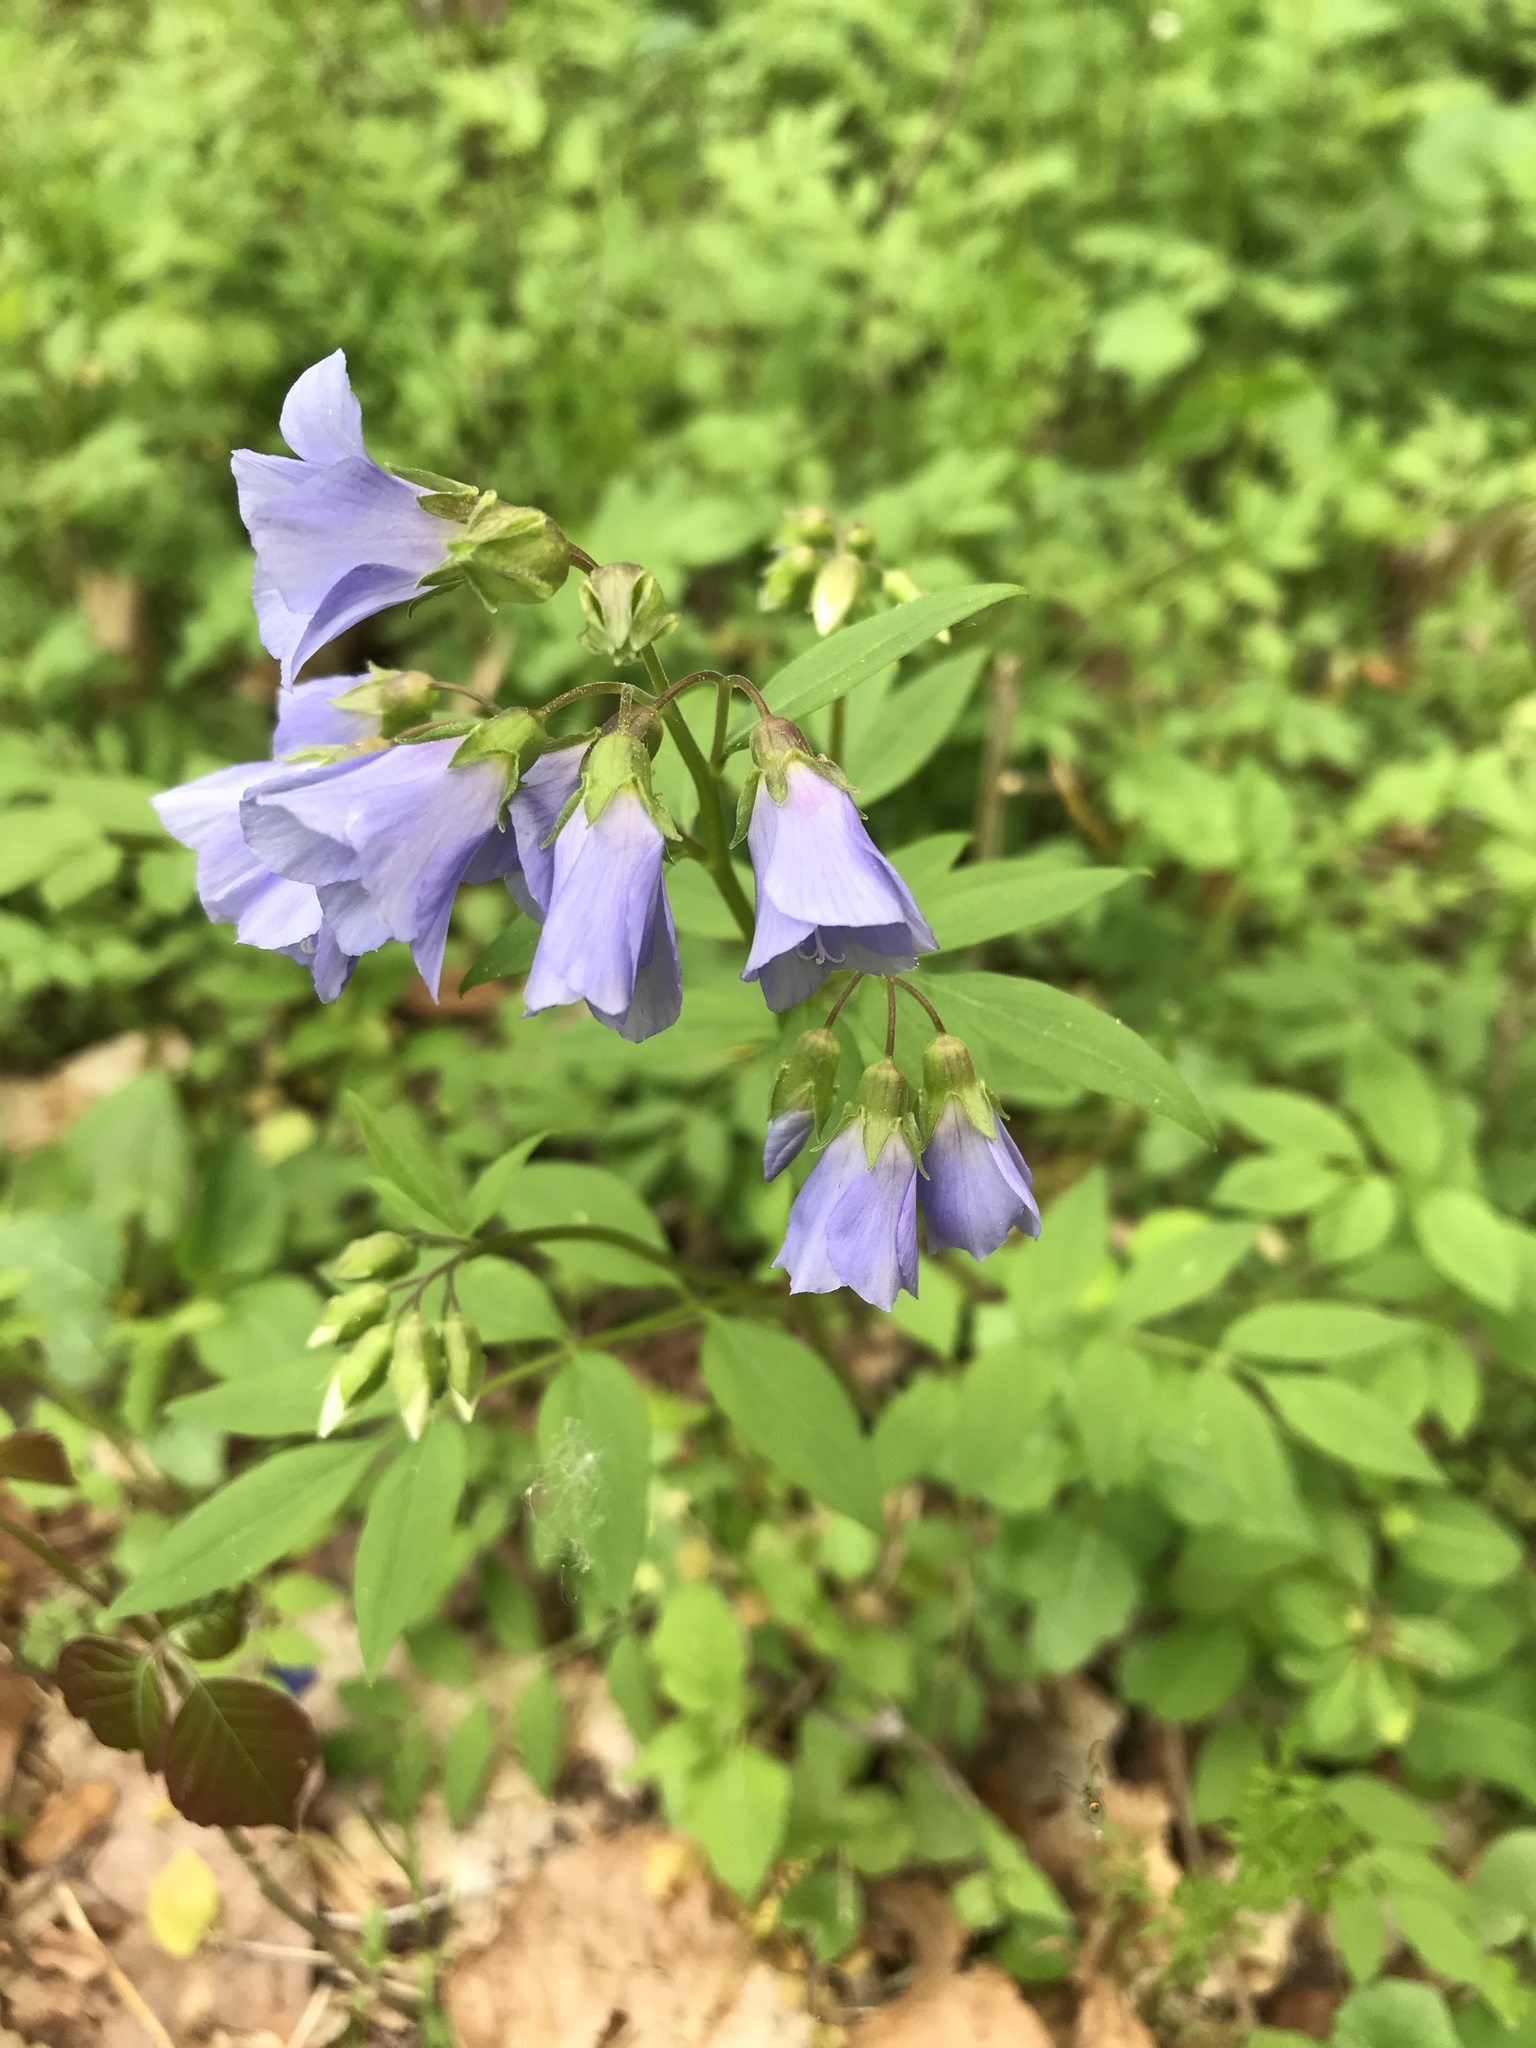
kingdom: Plantae
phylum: Tracheophyta
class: Magnoliopsida
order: Ericales
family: Polemoniaceae
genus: Polemonium
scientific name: Polemonium reptans
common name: Creeping jacob's-ladder
